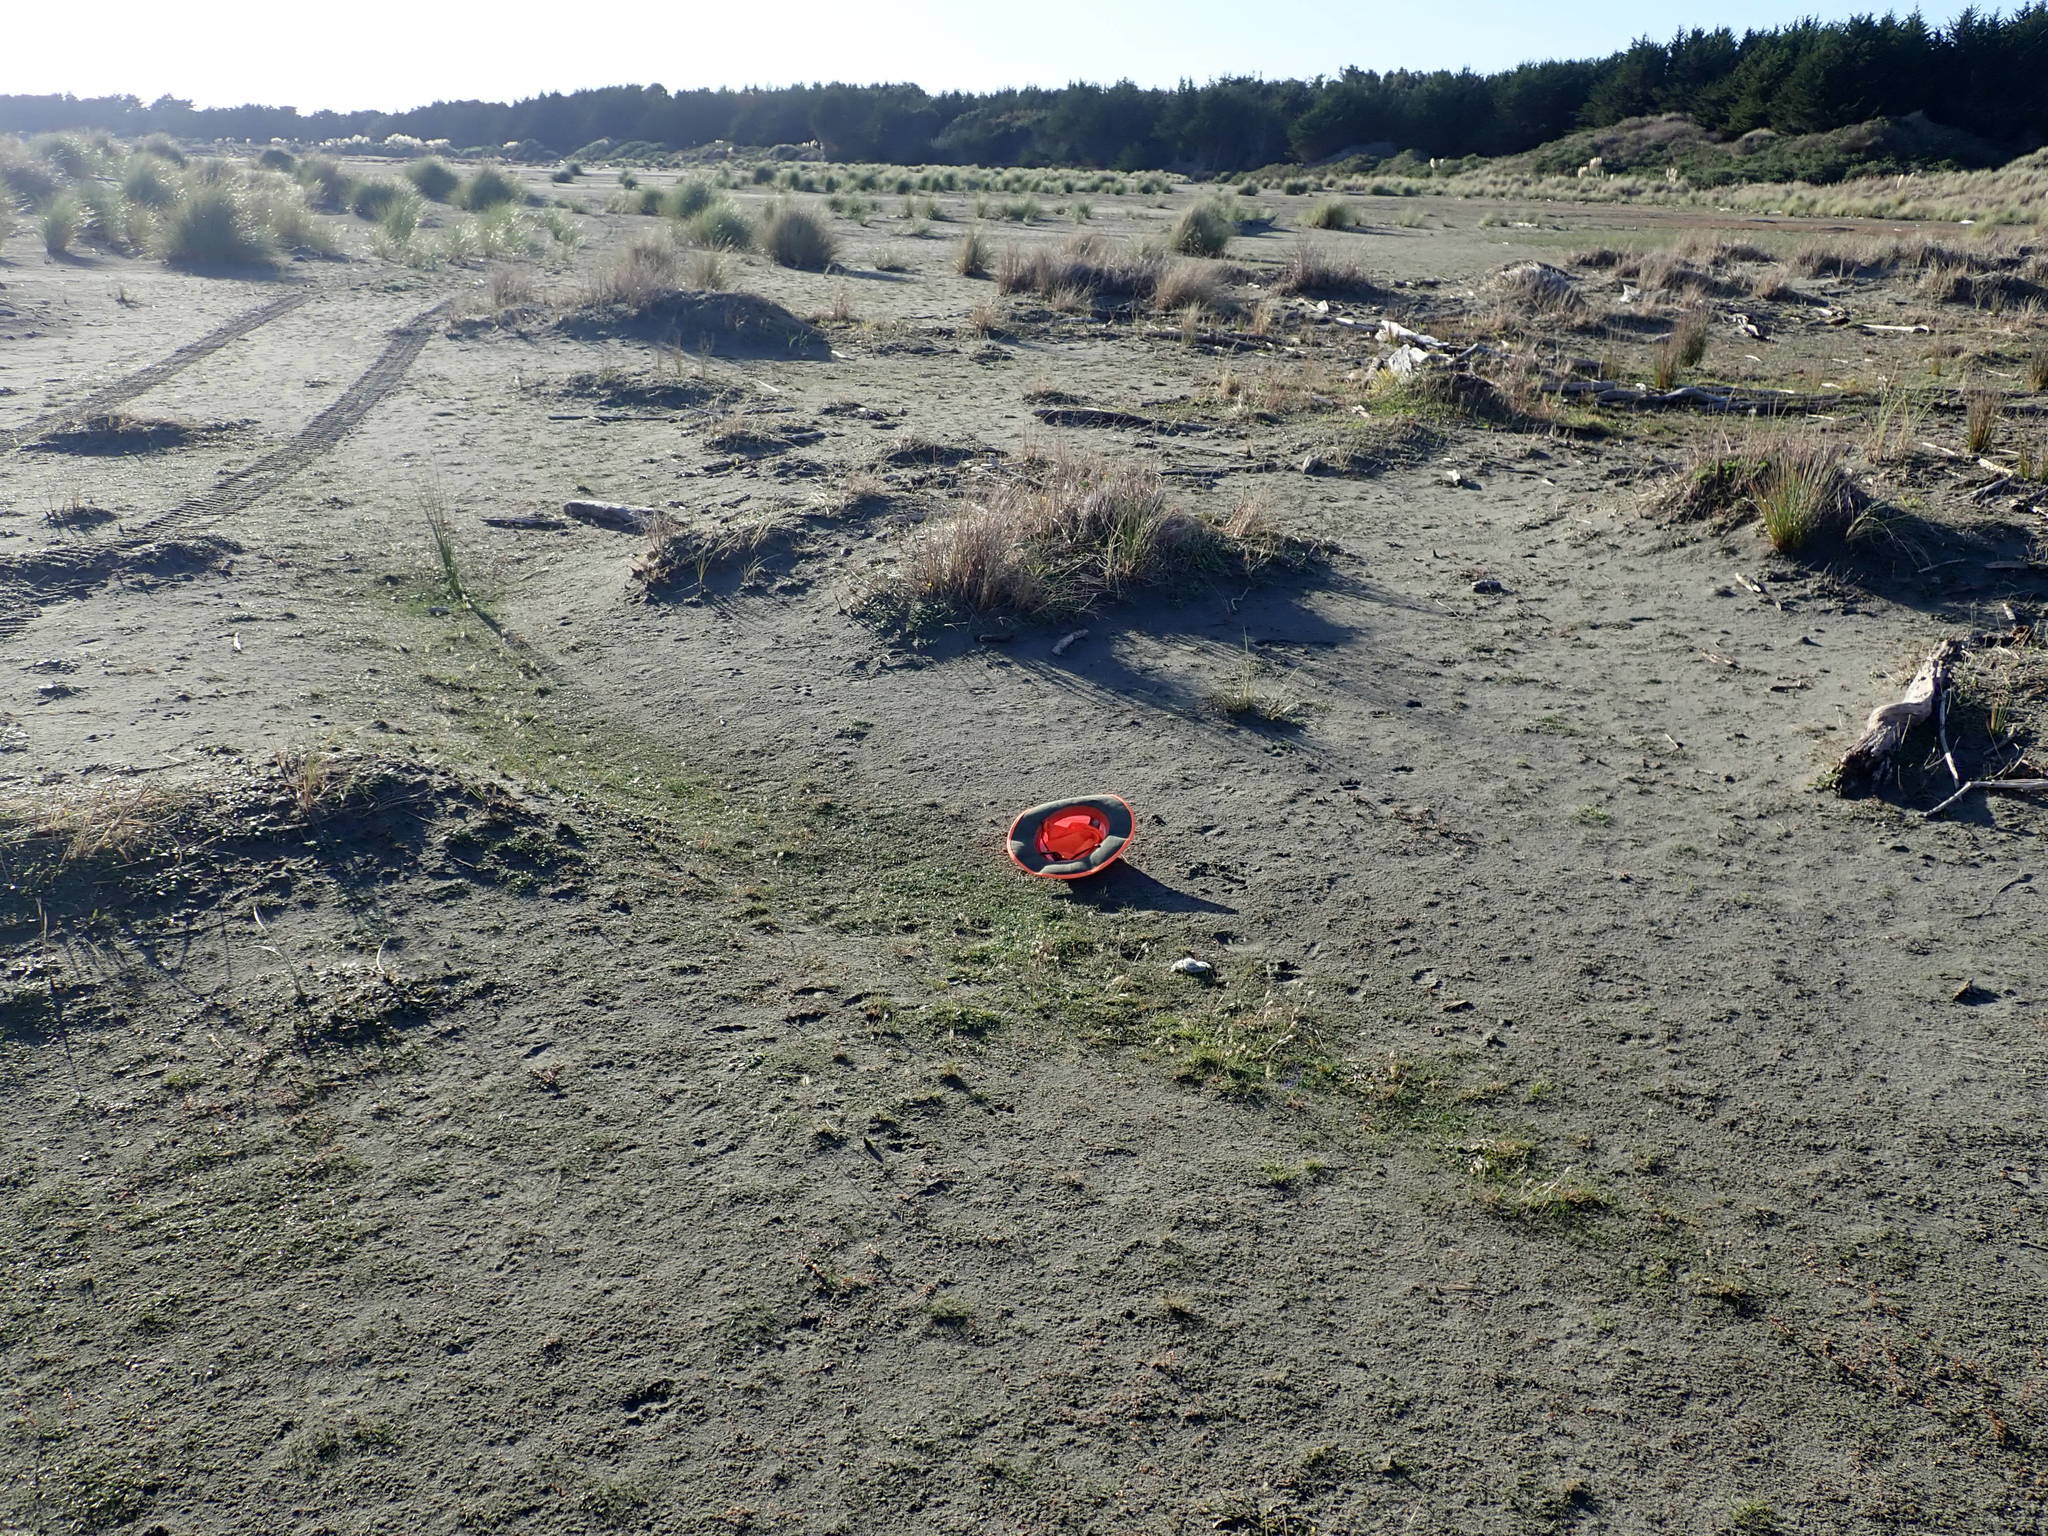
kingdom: Plantae
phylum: Tracheophyta
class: Magnoliopsida
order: Apiales
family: Apiaceae
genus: Lilaeopsis
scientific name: Lilaeopsis novae-zelandiae
